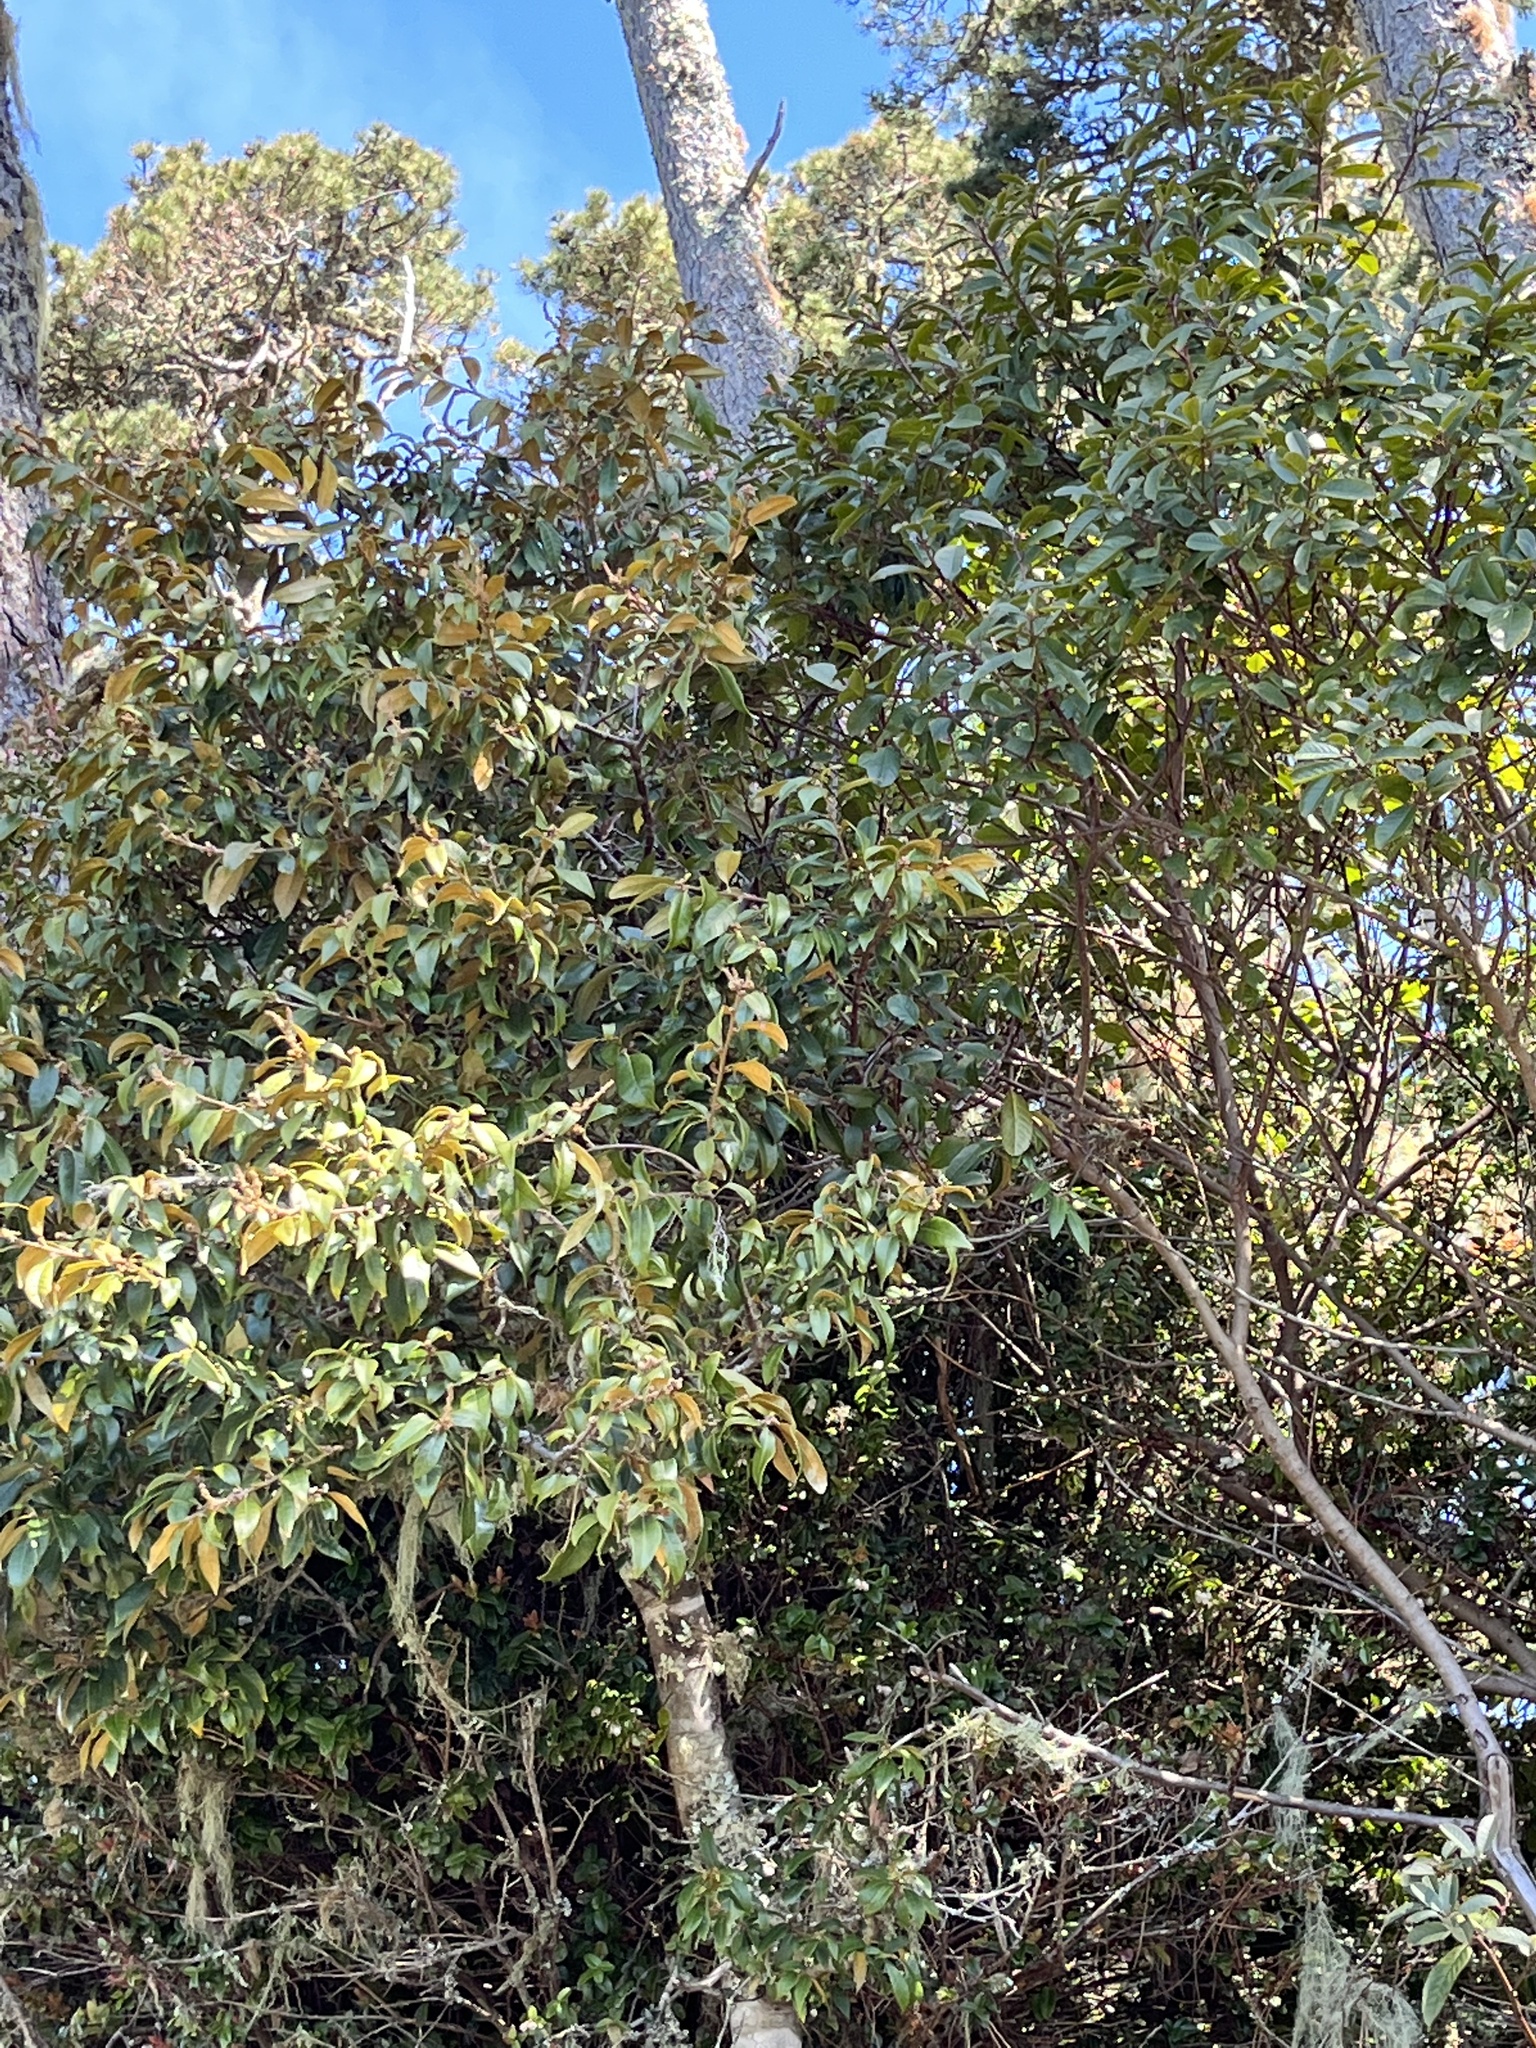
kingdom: Plantae
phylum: Tracheophyta
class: Magnoliopsida
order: Fagales
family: Fagaceae
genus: Chrysolepis
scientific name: Chrysolepis chrysophylla
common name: Giant chinquapin
